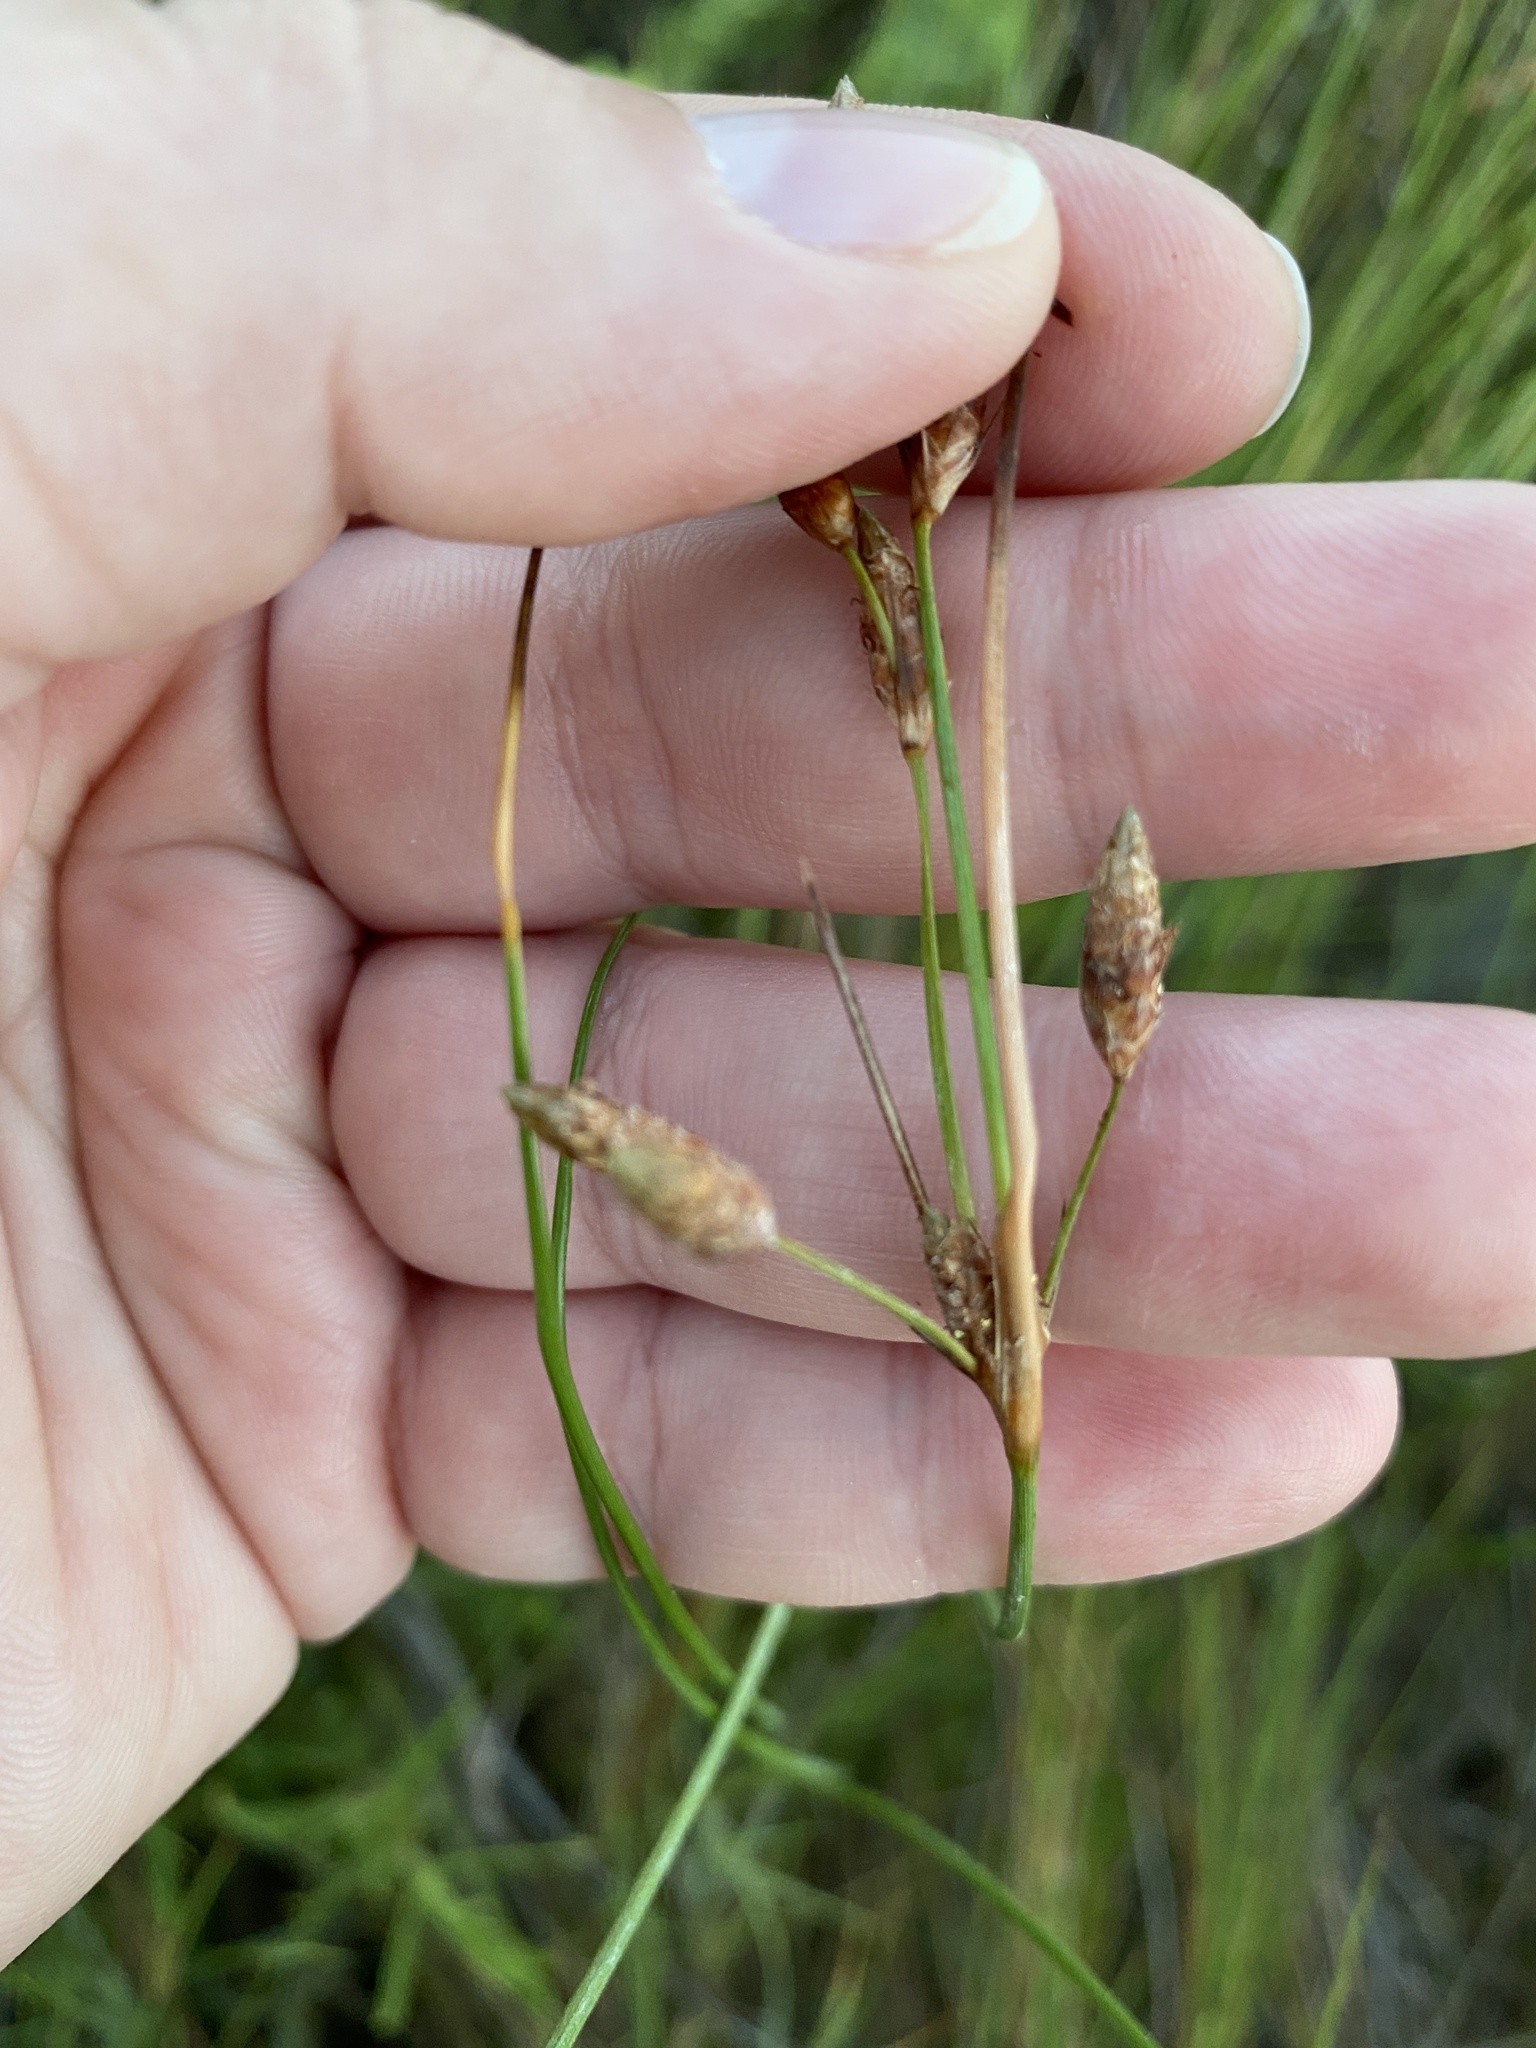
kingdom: Plantae
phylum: Tracheophyta
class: Liliopsida
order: Poales
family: Cyperaceae
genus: Fimbristylis
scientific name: Fimbristylis spadicea
